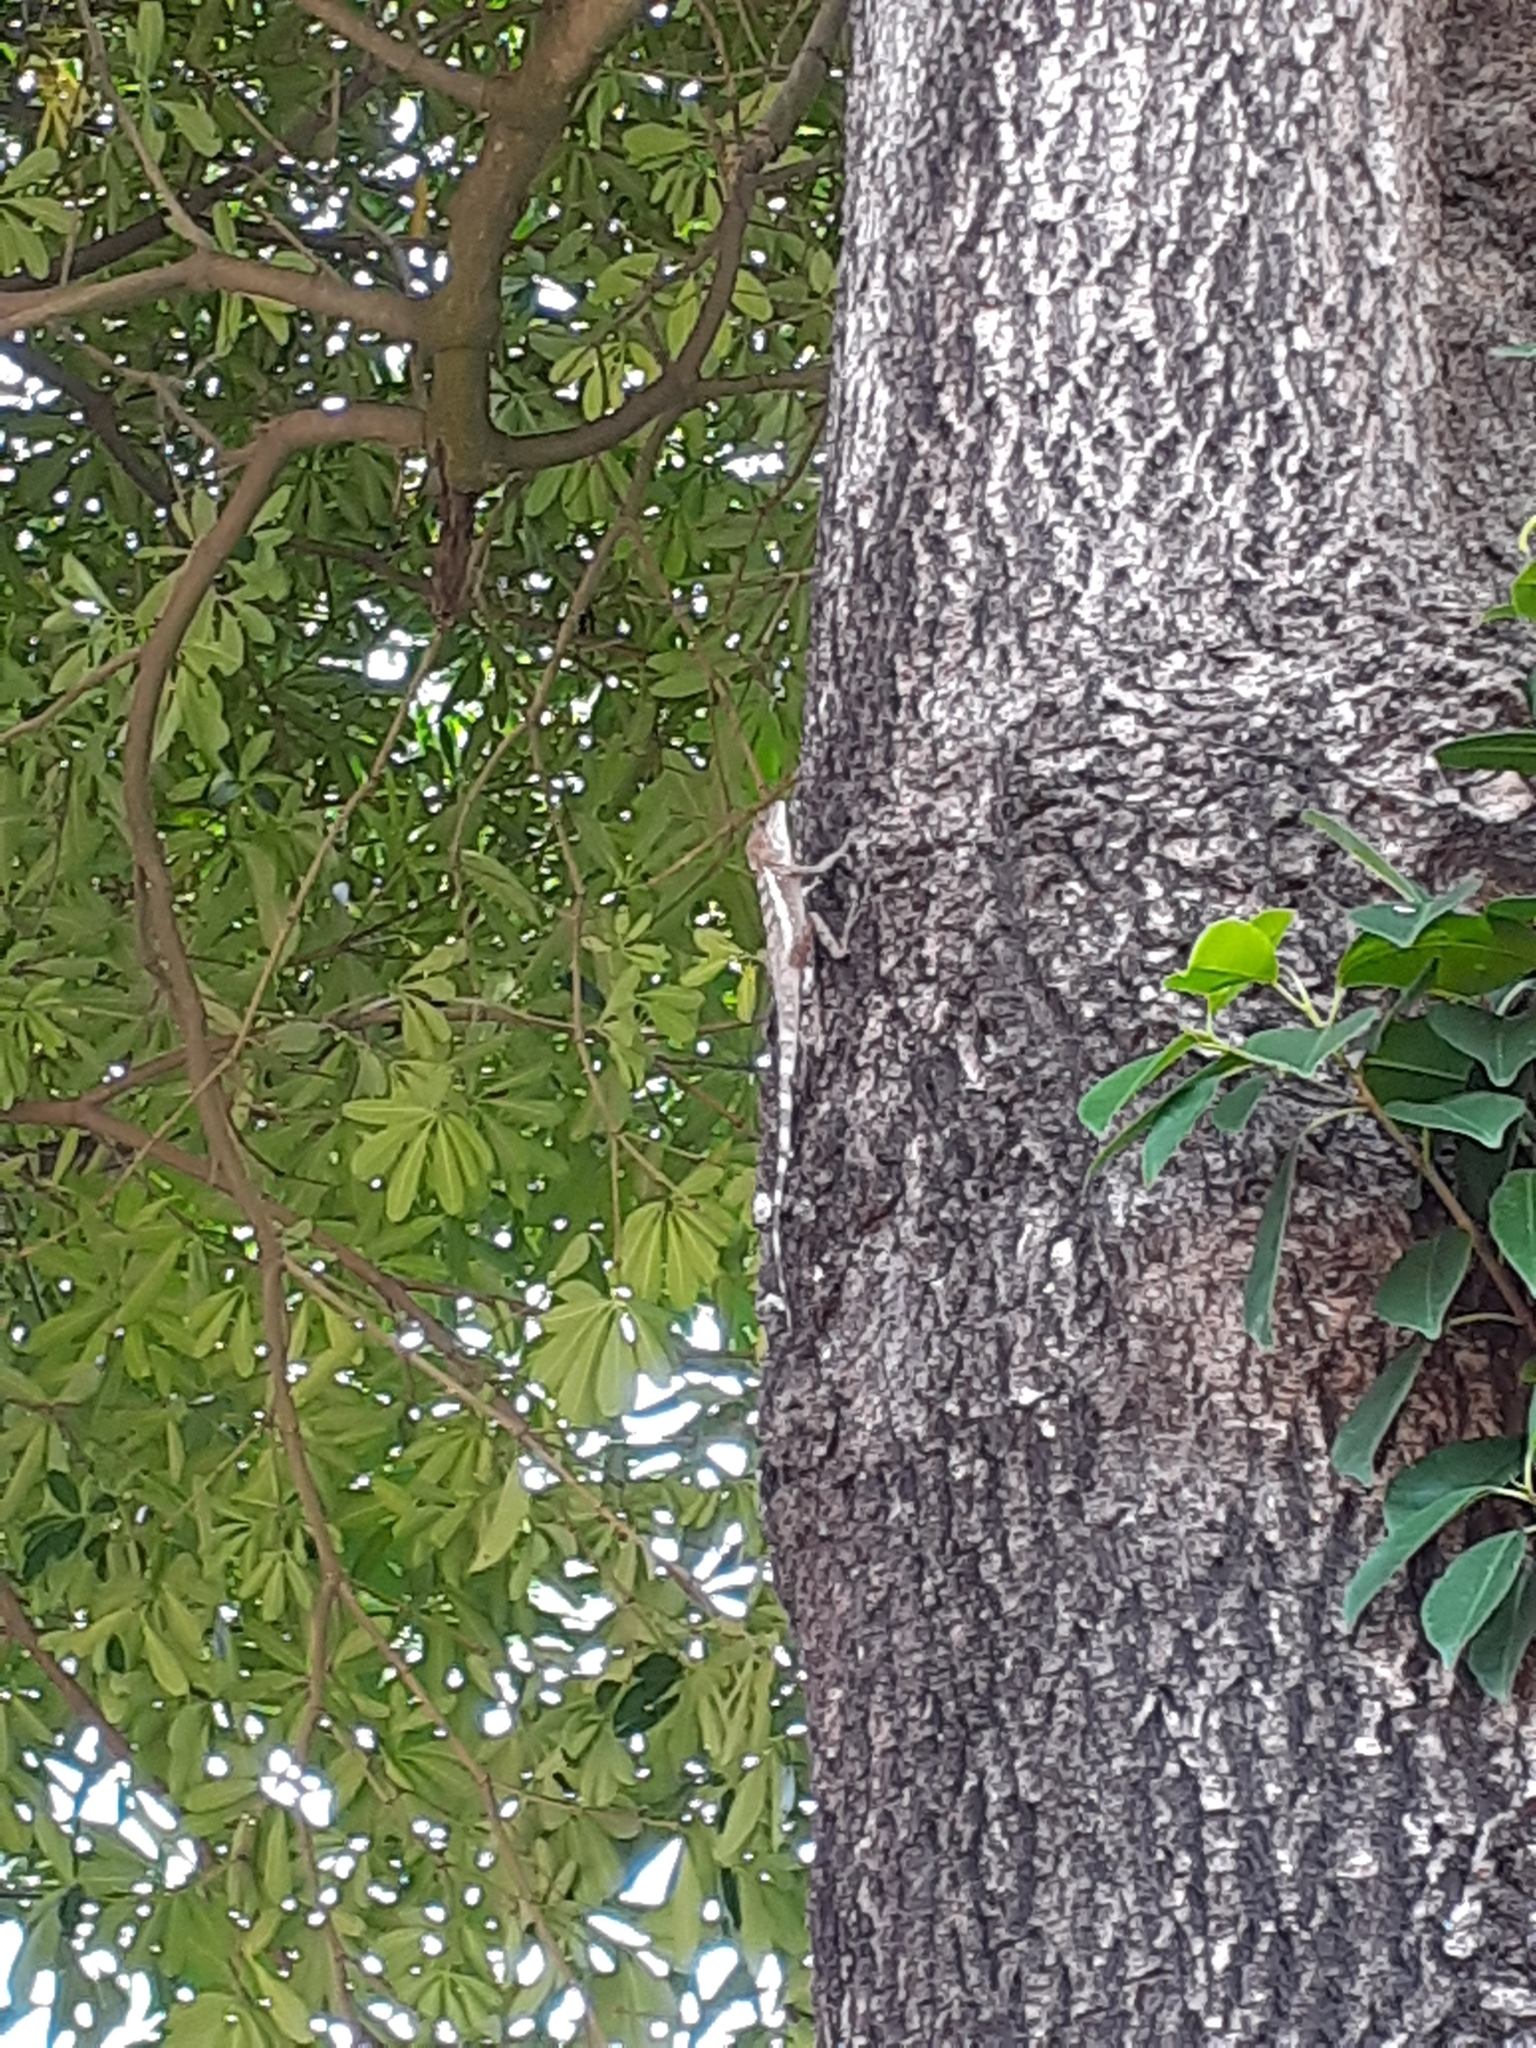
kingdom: Animalia
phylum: Chordata
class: Squamata
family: Agamidae
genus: Diploderma
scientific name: Diploderma swinhonis
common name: Taiwan japalure
